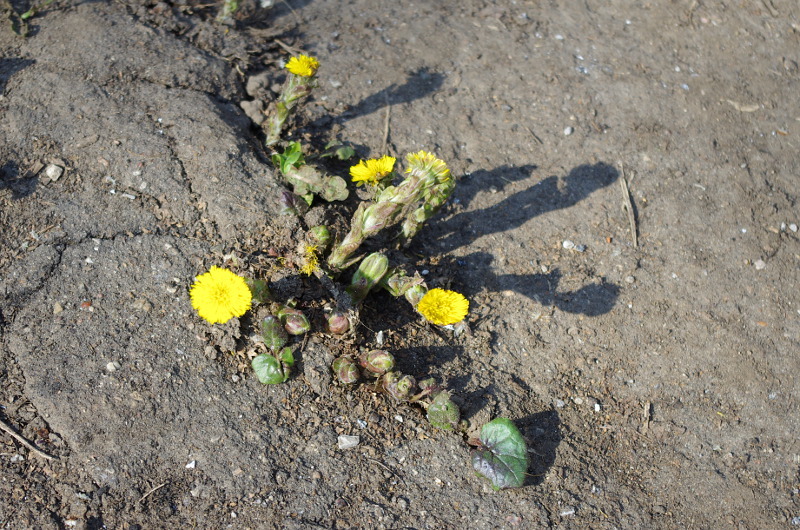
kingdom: Plantae
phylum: Tracheophyta
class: Magnoliopsida
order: Asterales
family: Asteraceae
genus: Tussilago
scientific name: Tussilago farfara
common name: Coltsfoot
